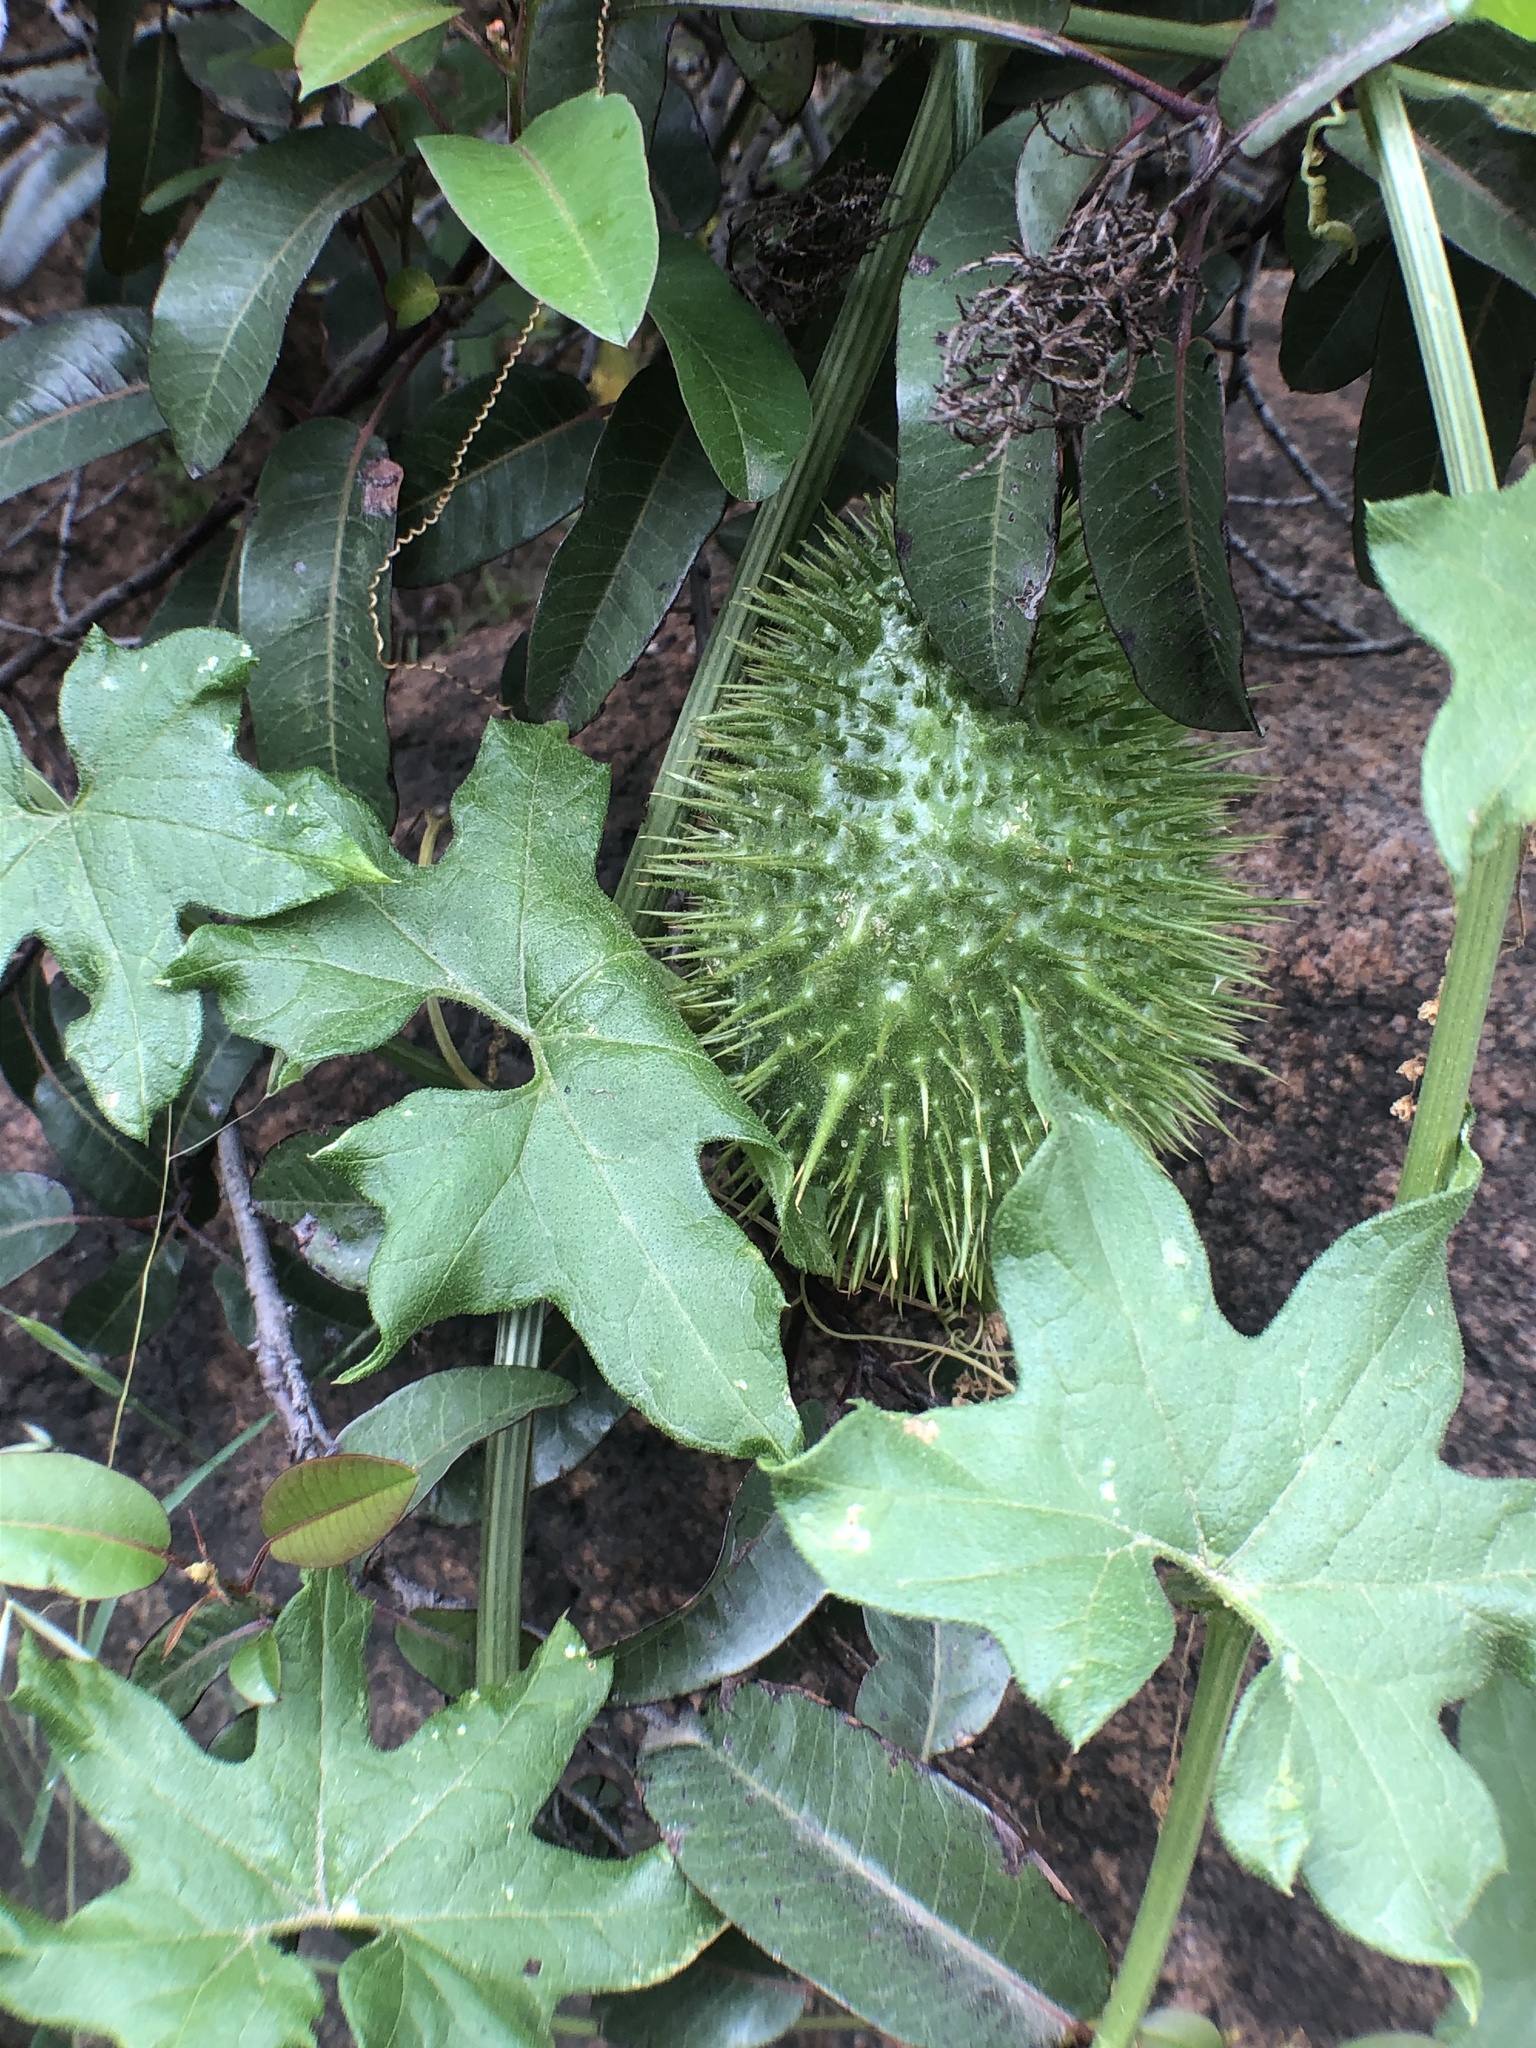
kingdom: Plantae
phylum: Tracheophyta
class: Magnoliopsida
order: Cucurbitales
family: Cucurbitaceae
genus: Marah
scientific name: Marah macrocarpa
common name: Cucamonga manroot
